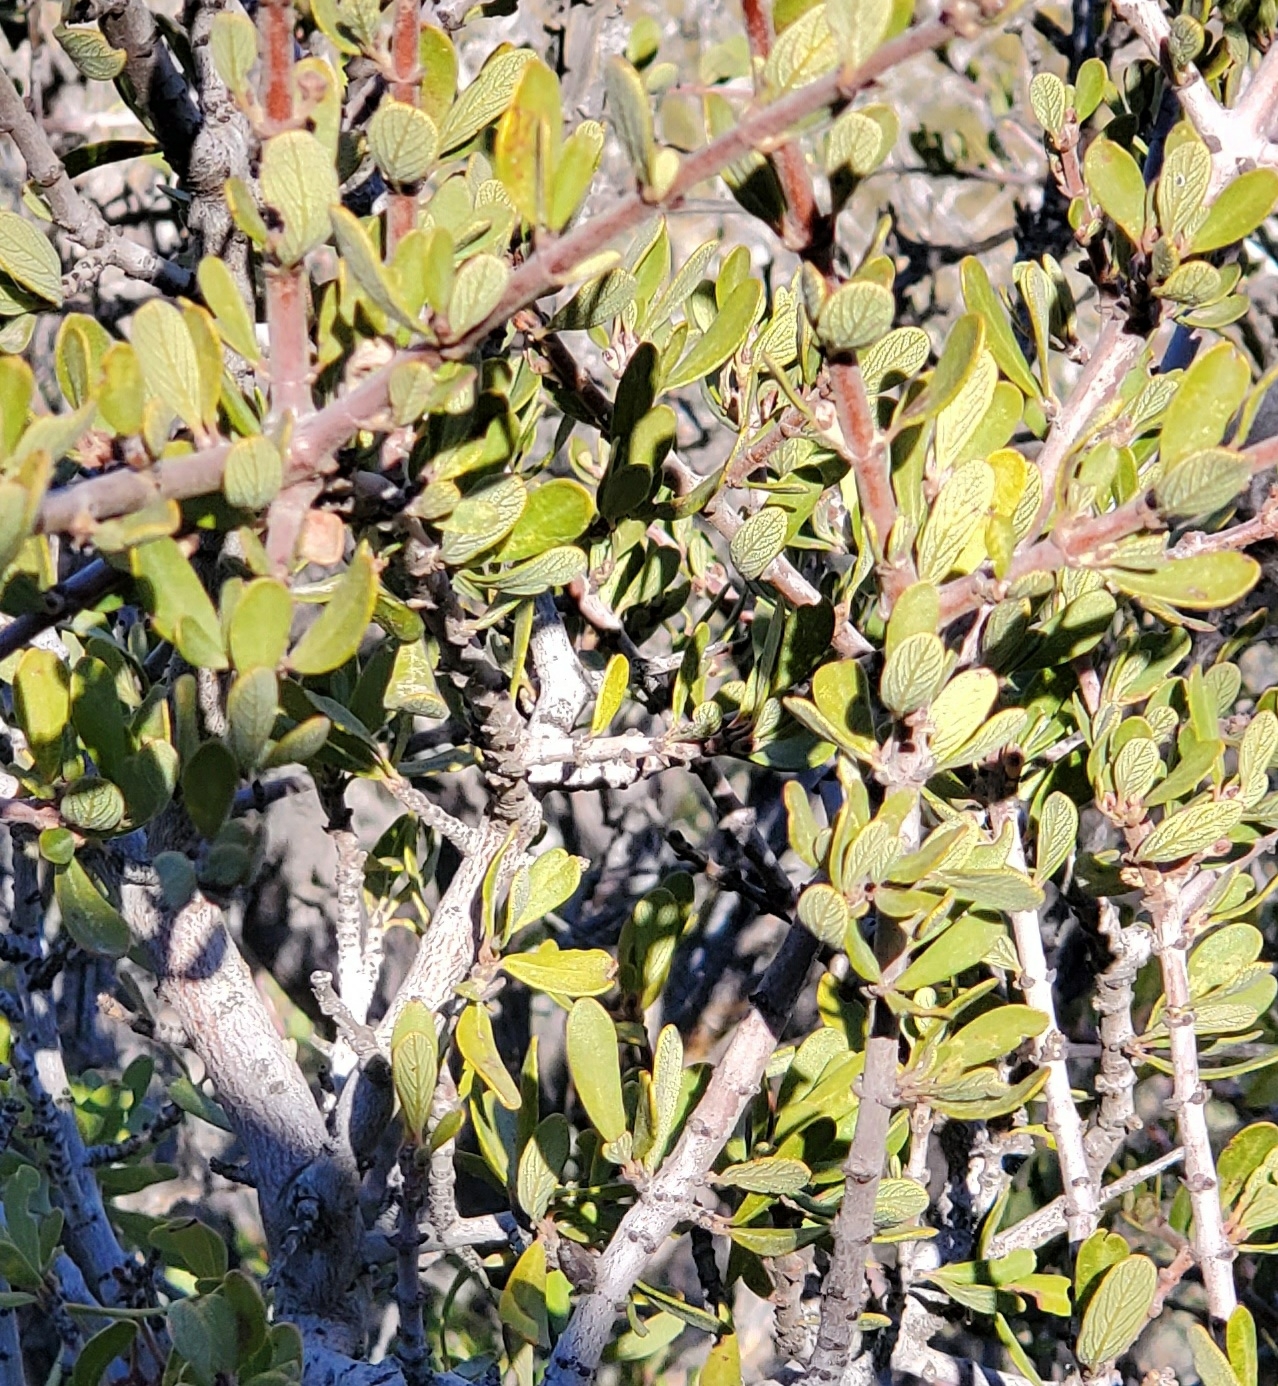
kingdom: Plantae
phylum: Tracheophyta
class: Magnoliopsida
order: Rosales
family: Rhamnaceae
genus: Ceanothus
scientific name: Ceanothus cuneatus
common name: Cuneate ceanothus
